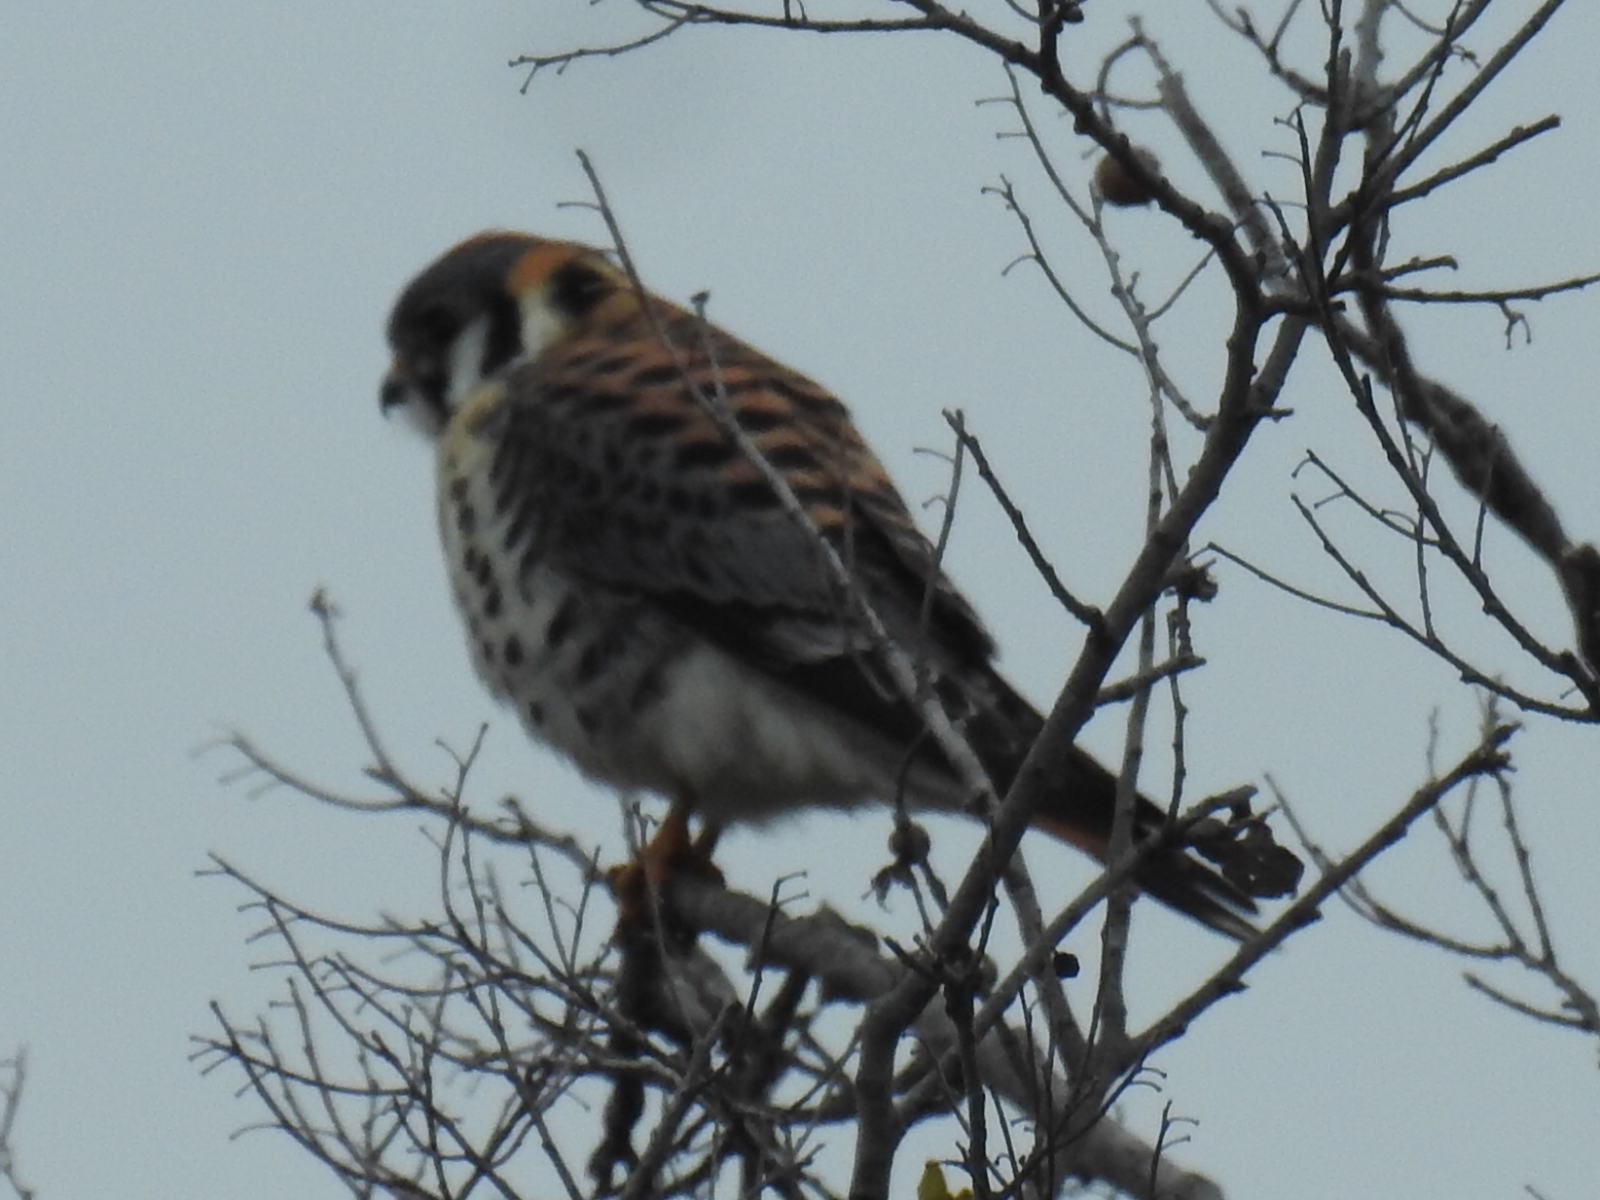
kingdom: Animalia
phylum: Chordata
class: Aves
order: Falconiformes
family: Falconidae
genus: Falco
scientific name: Falco sparverius
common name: American kestrel
